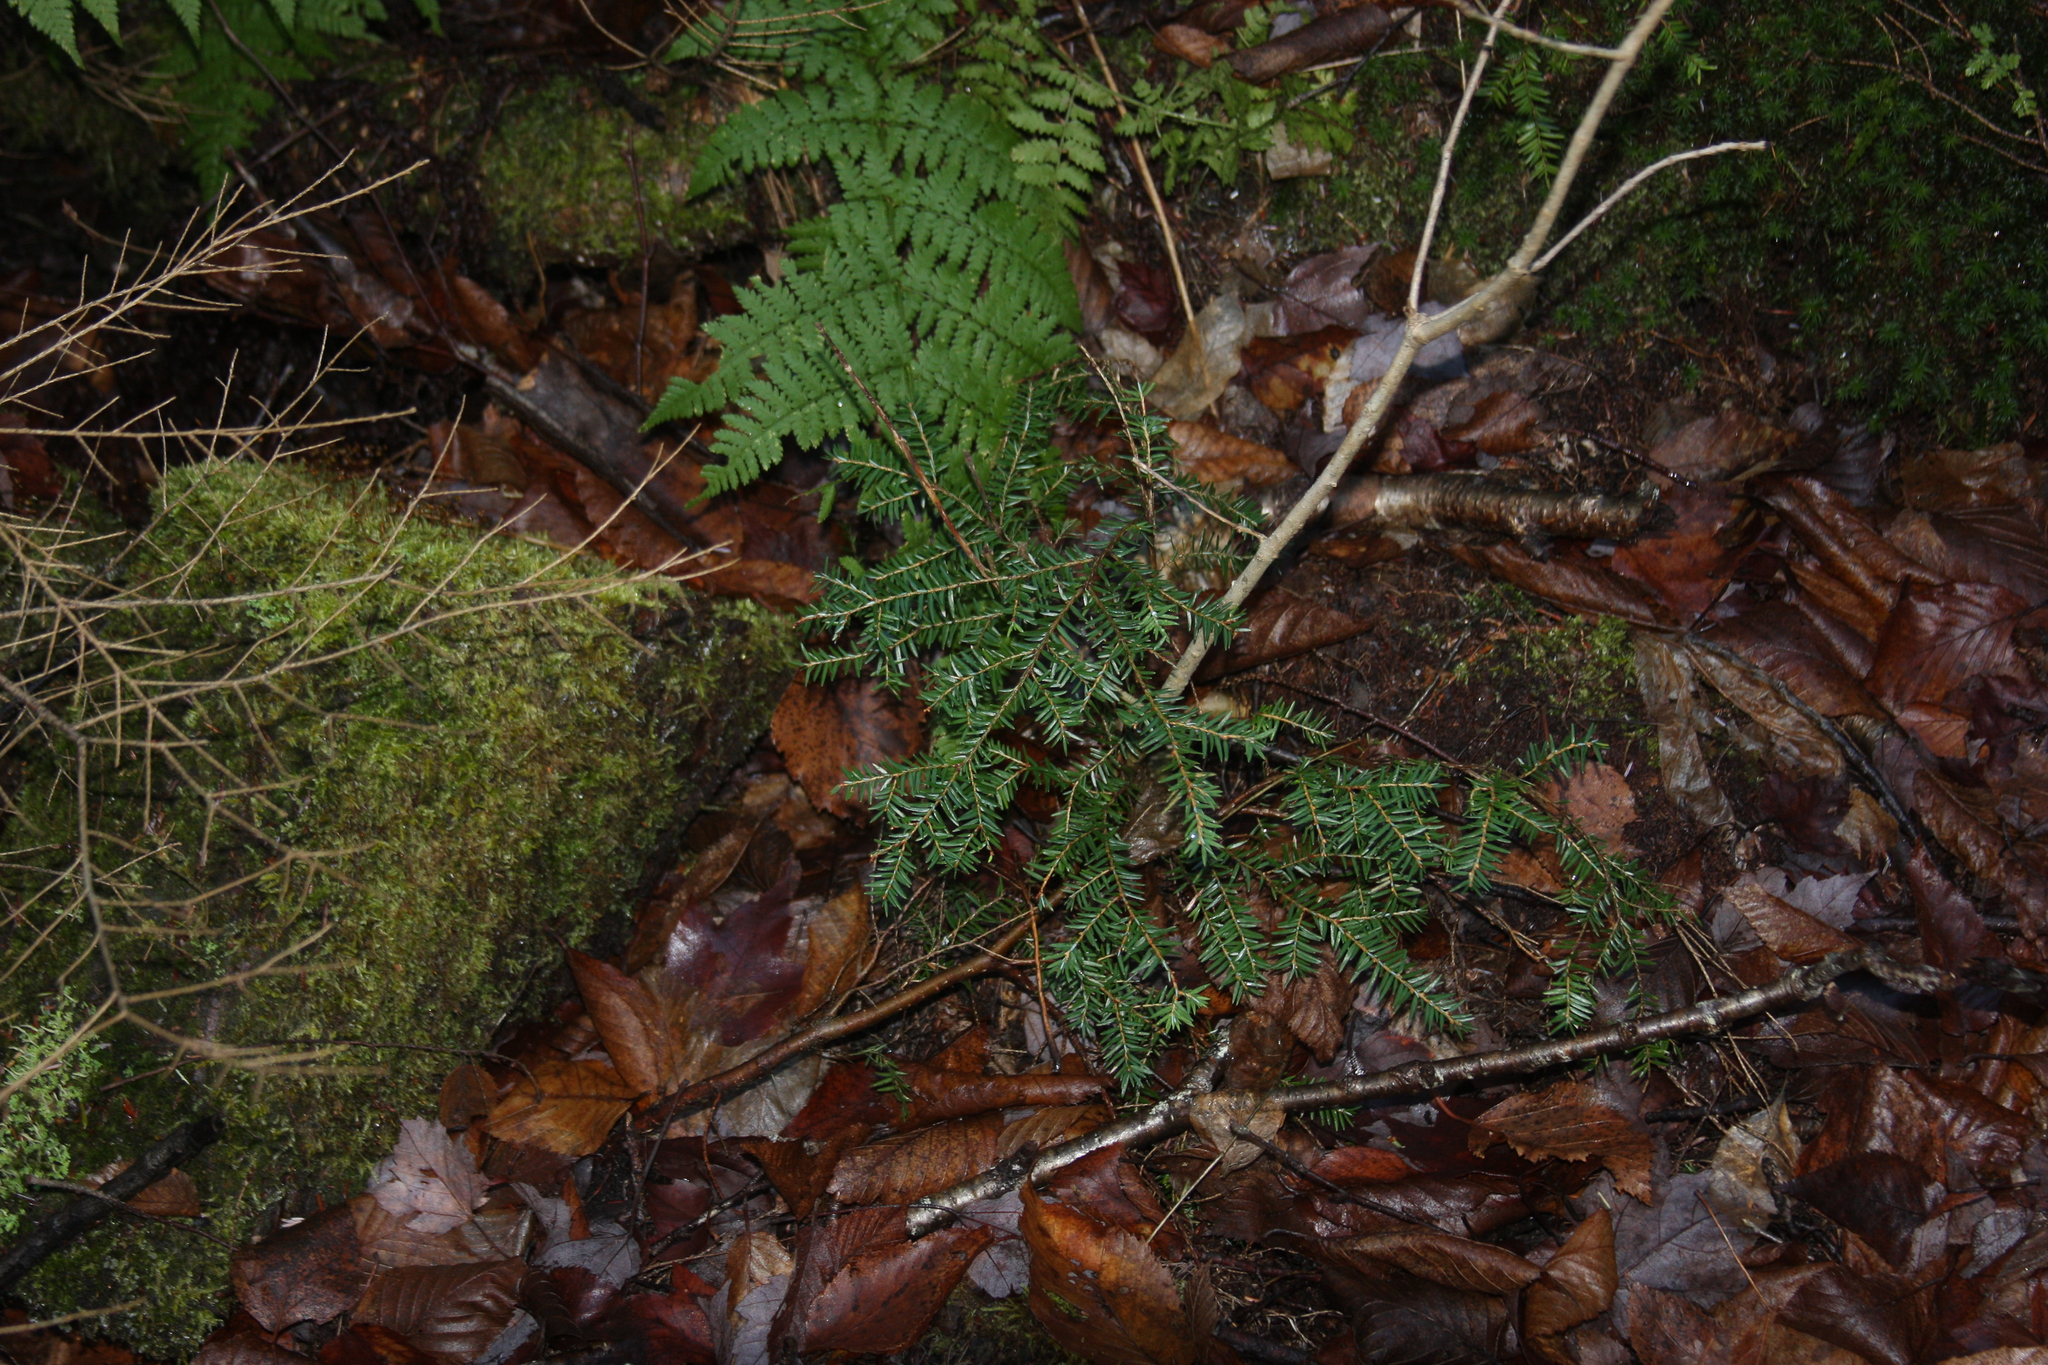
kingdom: Plantae
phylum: Tracheophyta
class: Pinopsida
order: Pinales
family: Pinaceae
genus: Tsuga
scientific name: Tsuga canadensis
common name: Eastern hemlock
